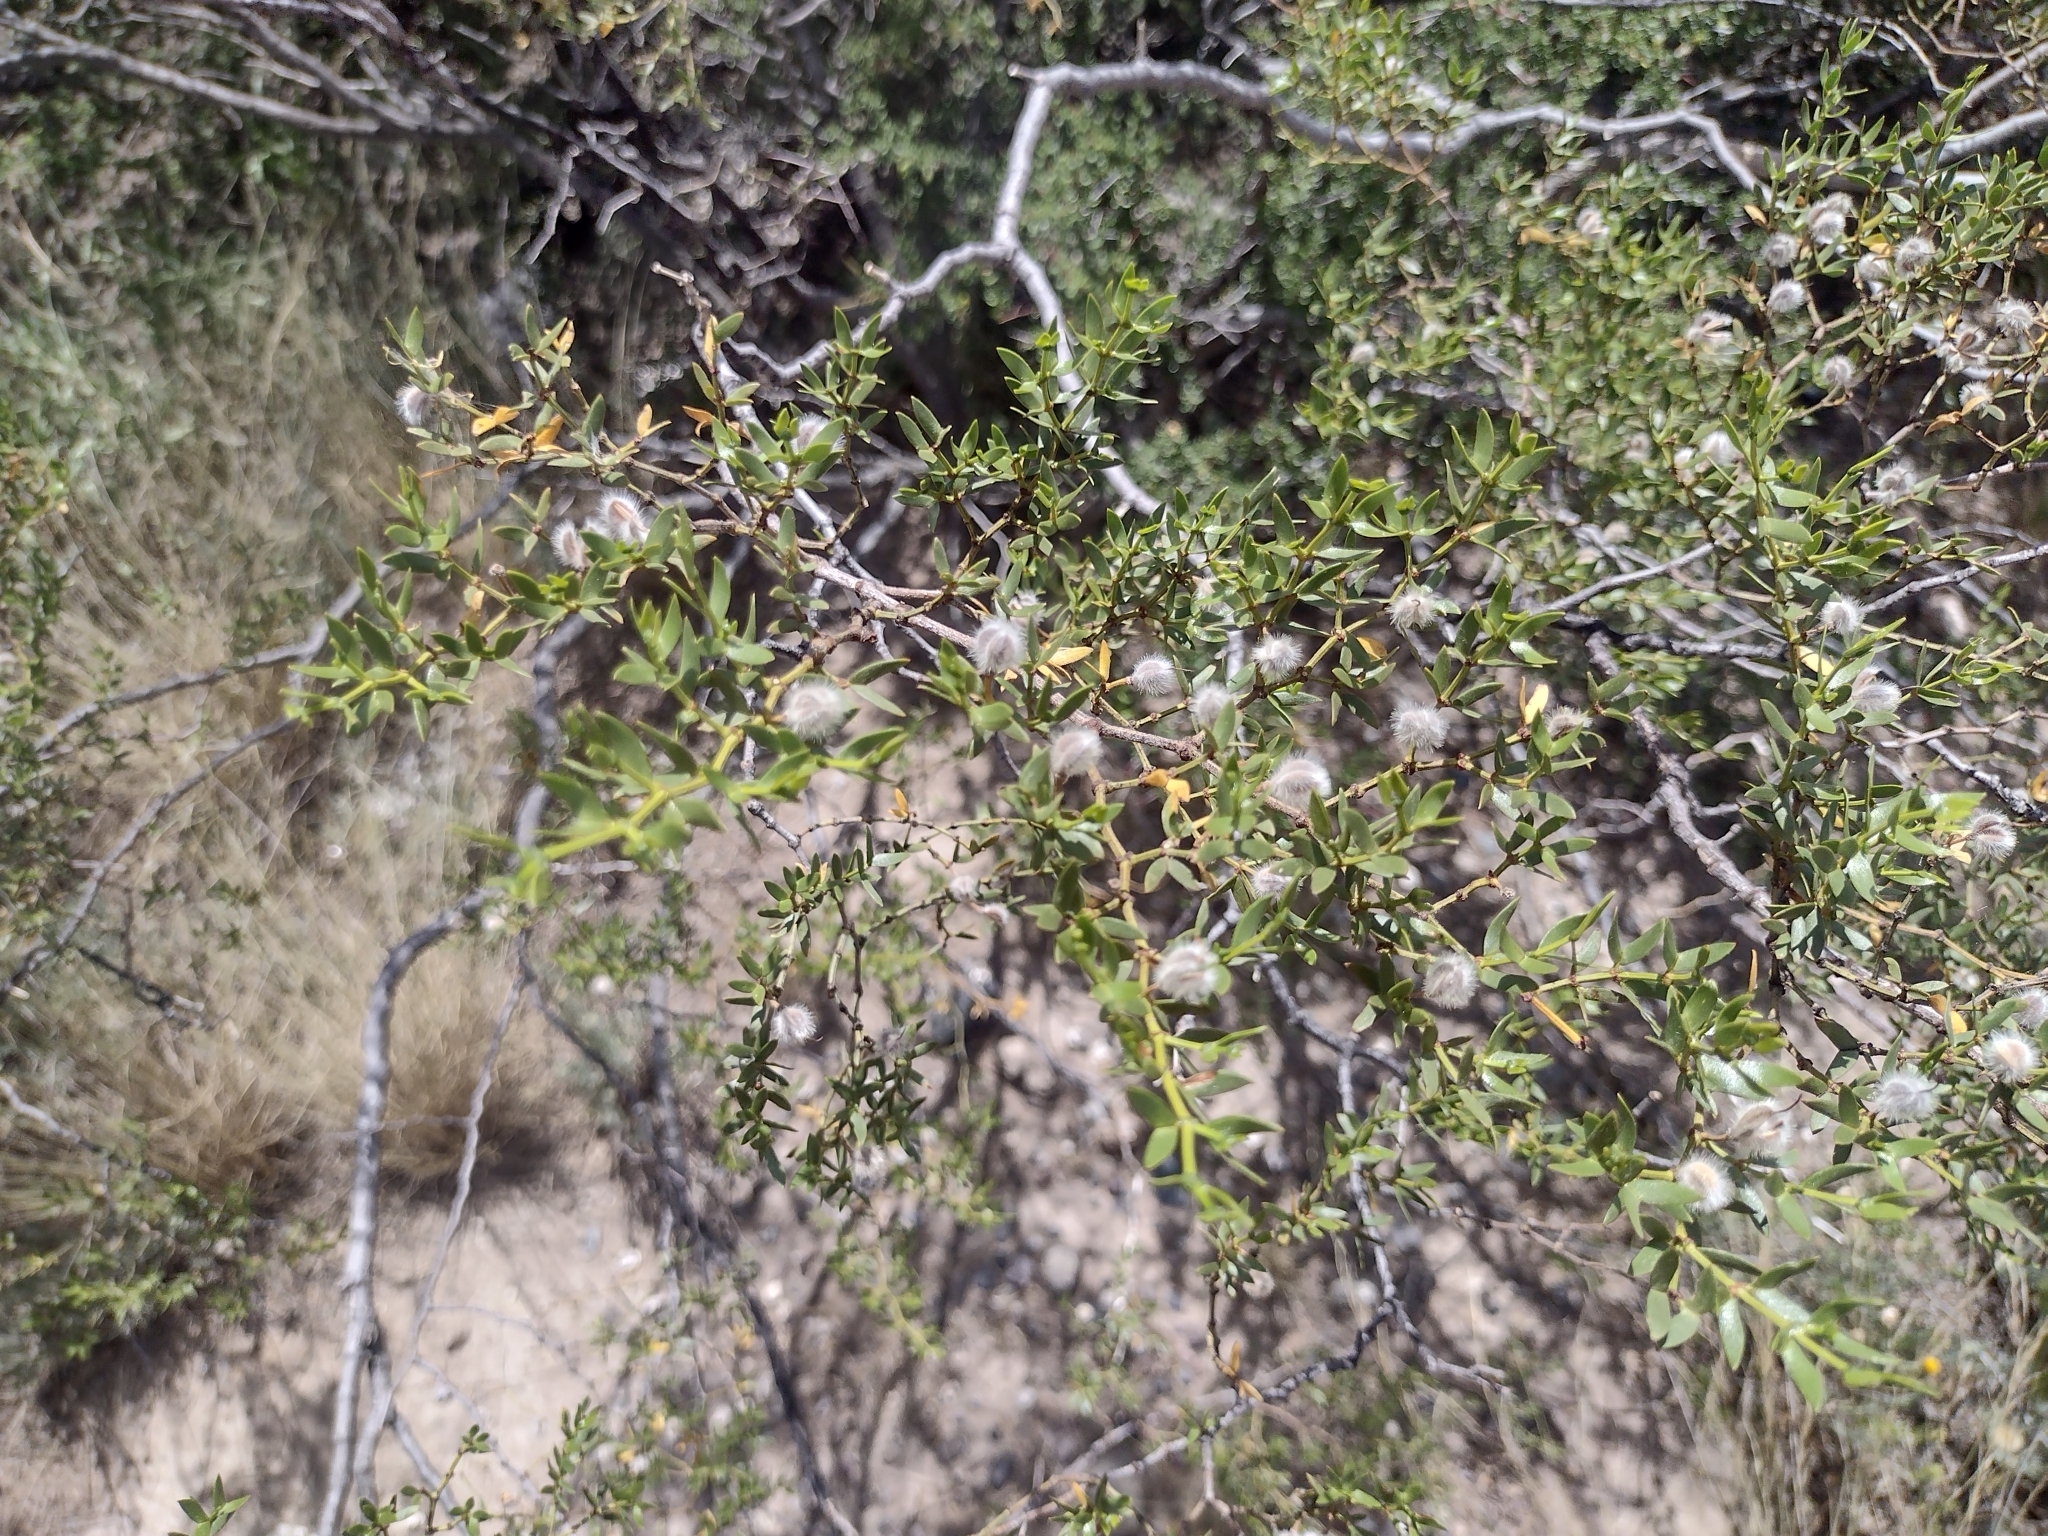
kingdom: Plantae
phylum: Tracheophyta
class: Magnoliopsida
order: Zygophyllales
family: Zygophyllaceae
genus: Larrea
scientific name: Larrea divaricata
